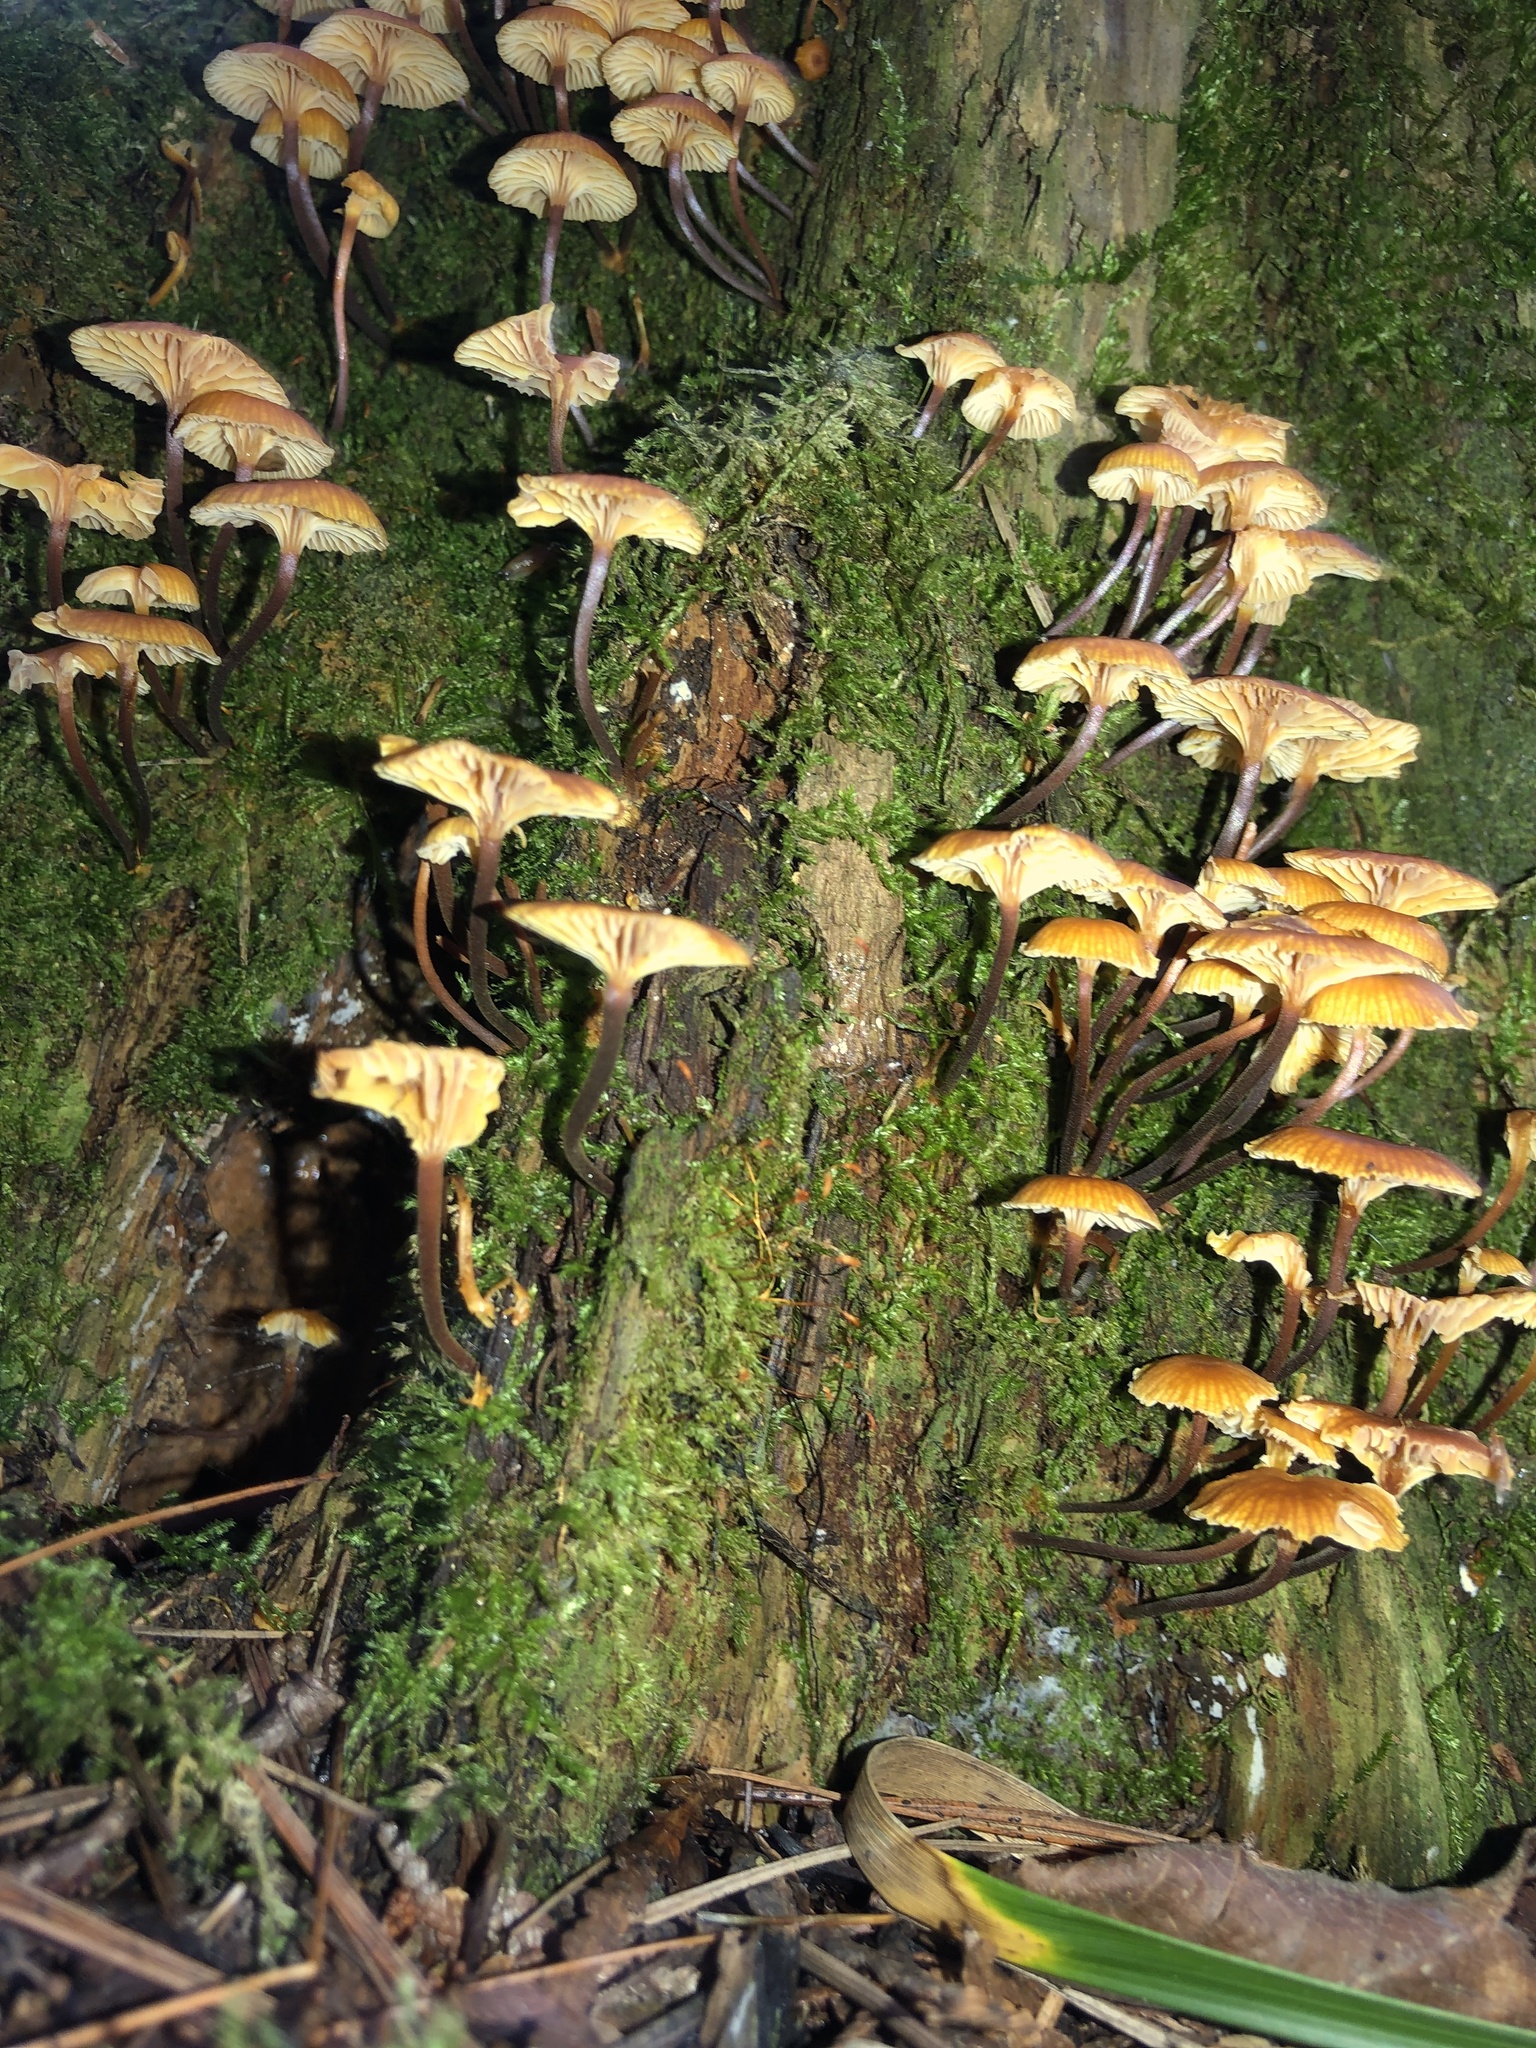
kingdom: Fungi
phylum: Basidiomycota
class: Agaricomycetes
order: Agaricales
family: Mycenaceae
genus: Xeromphalina
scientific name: Xeromphalina campanella
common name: Pinewood gingertail
